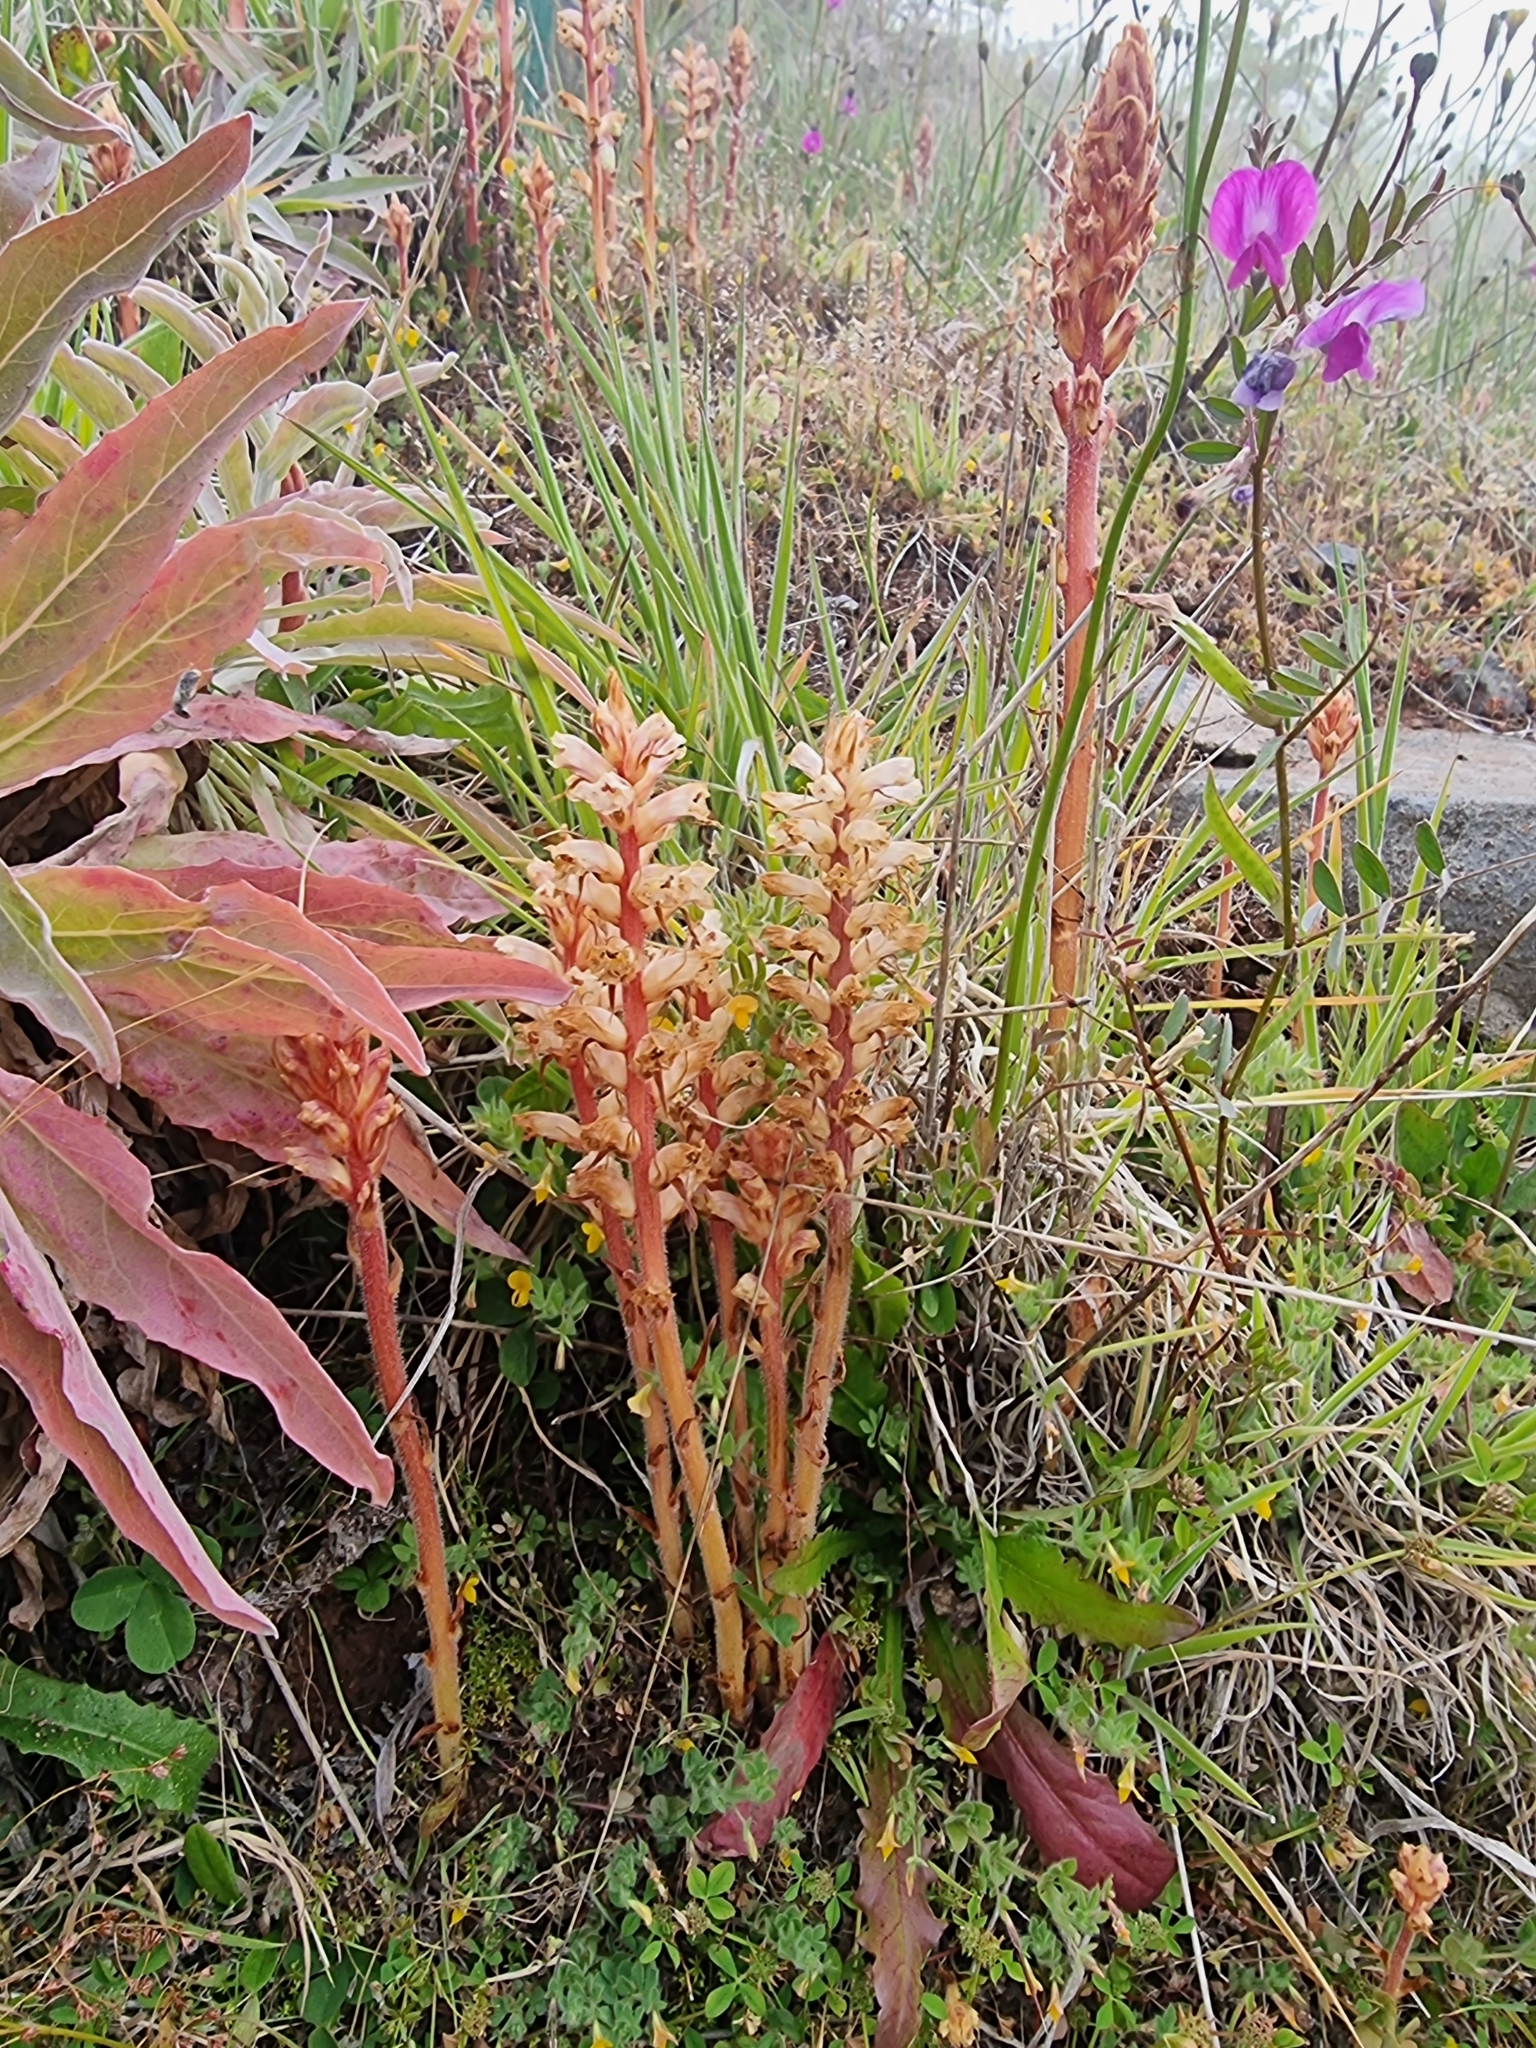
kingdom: Plantae
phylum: Tracheophyta
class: Magnoliopsida
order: Lamiales
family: Orobanchaceae
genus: Orobanche
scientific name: Orobanche minor
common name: Common broomrape
